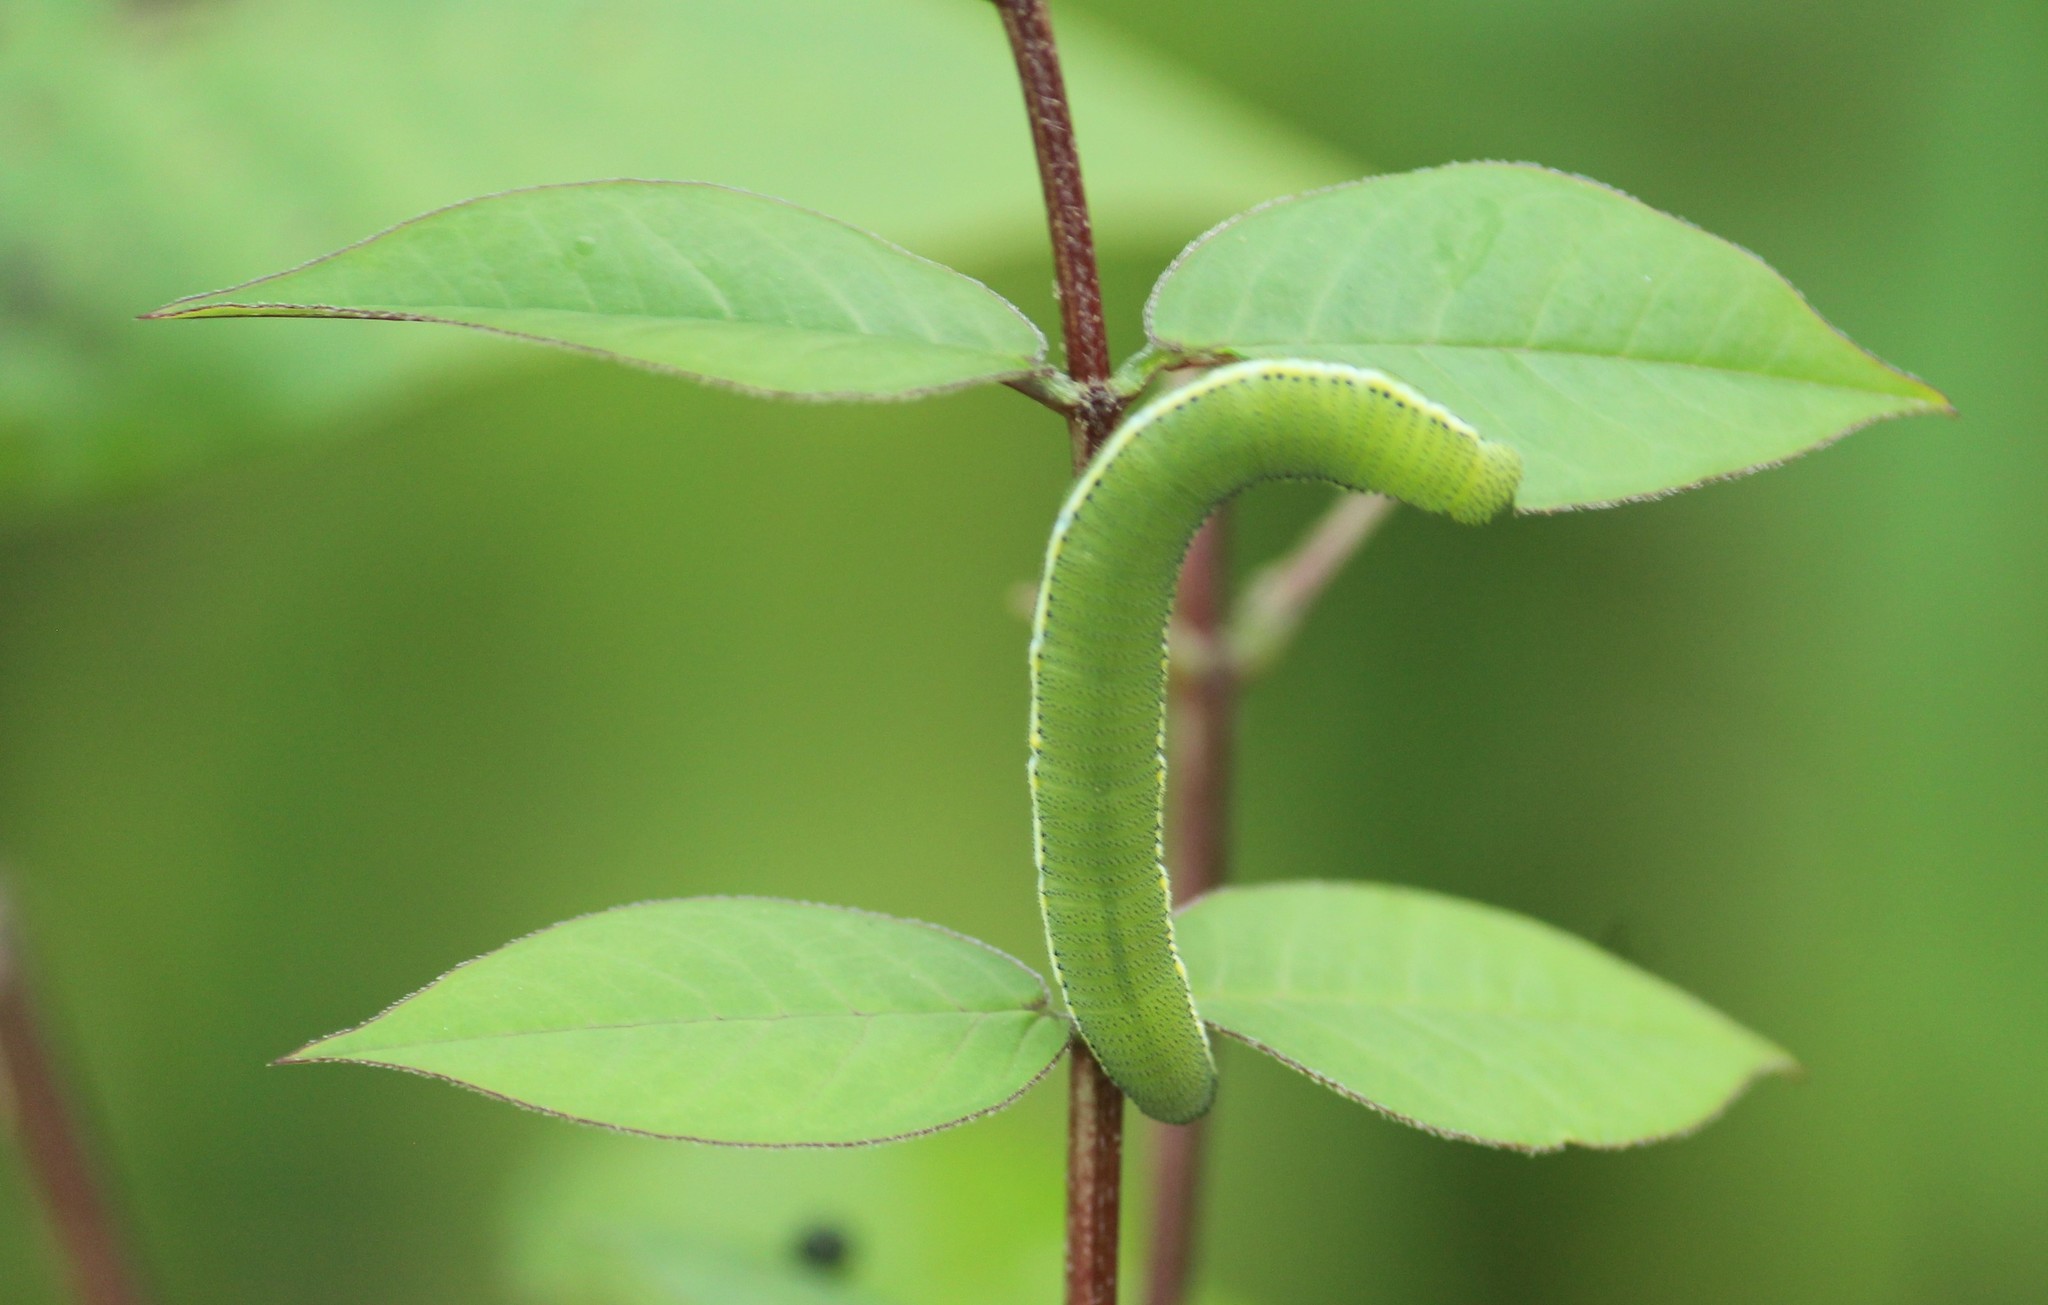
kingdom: Animalia
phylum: Arthropoda
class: Insecta
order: Lepidoptera
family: Pieridae
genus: Catopsilia
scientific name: Catopsilia pyranthe
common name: Mottled emigrant
